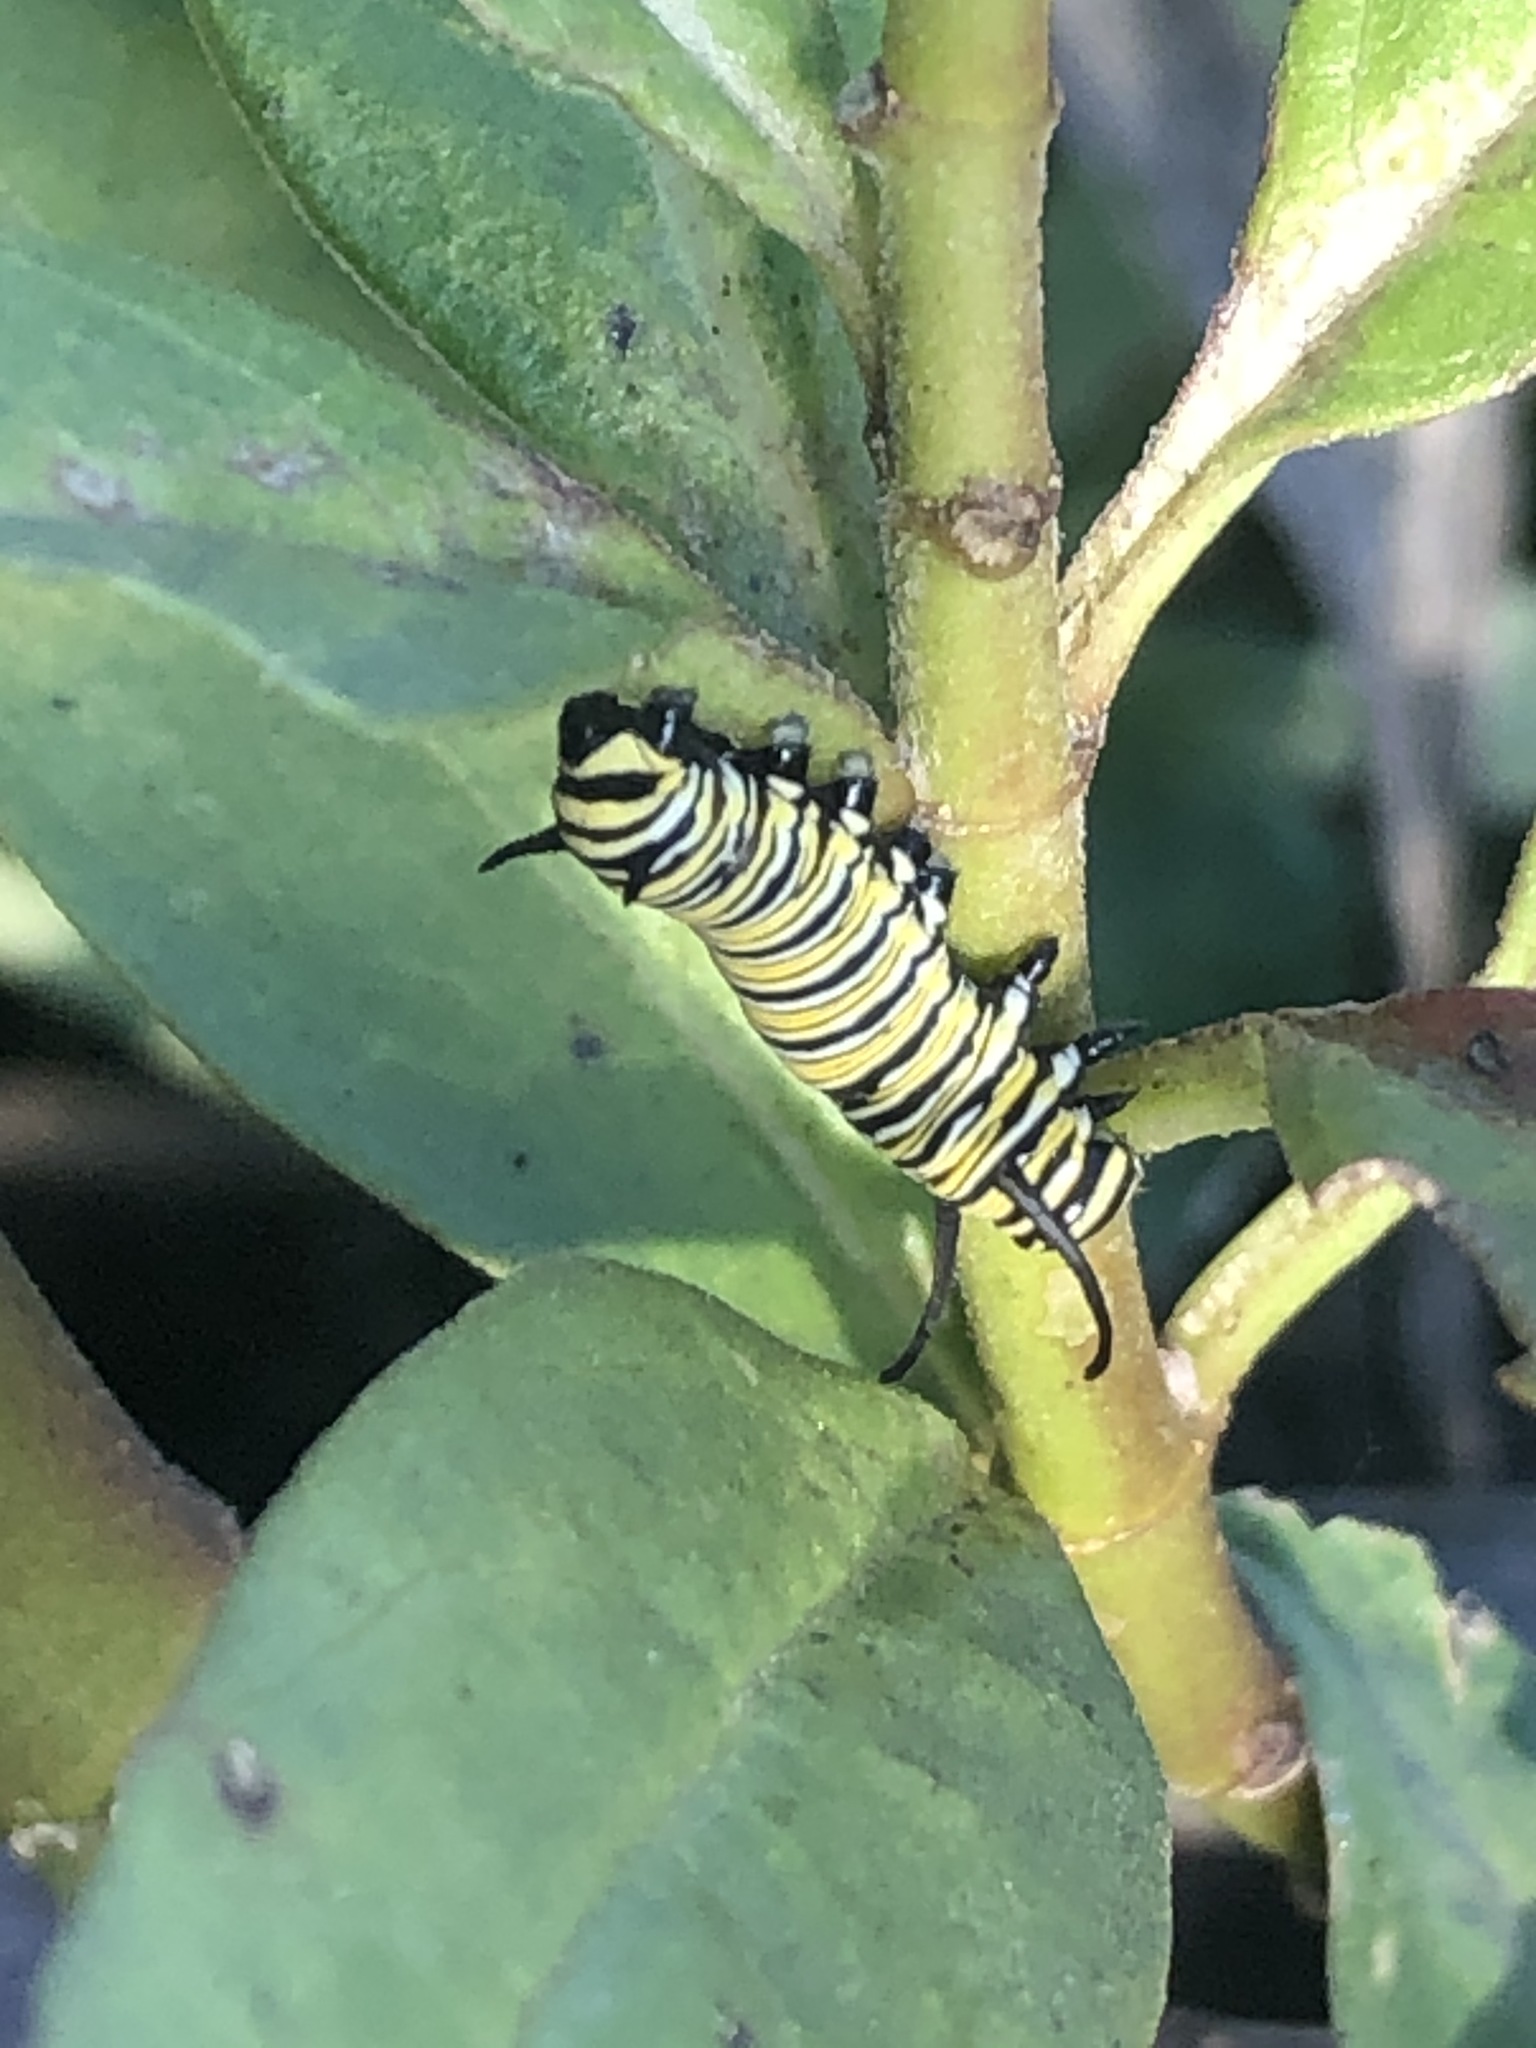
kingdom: Animalia
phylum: Arthropoda
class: Insecta
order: Lepidoptera
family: Nymphalidae
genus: Danaus
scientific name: Danaus plexippus
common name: Monarch
